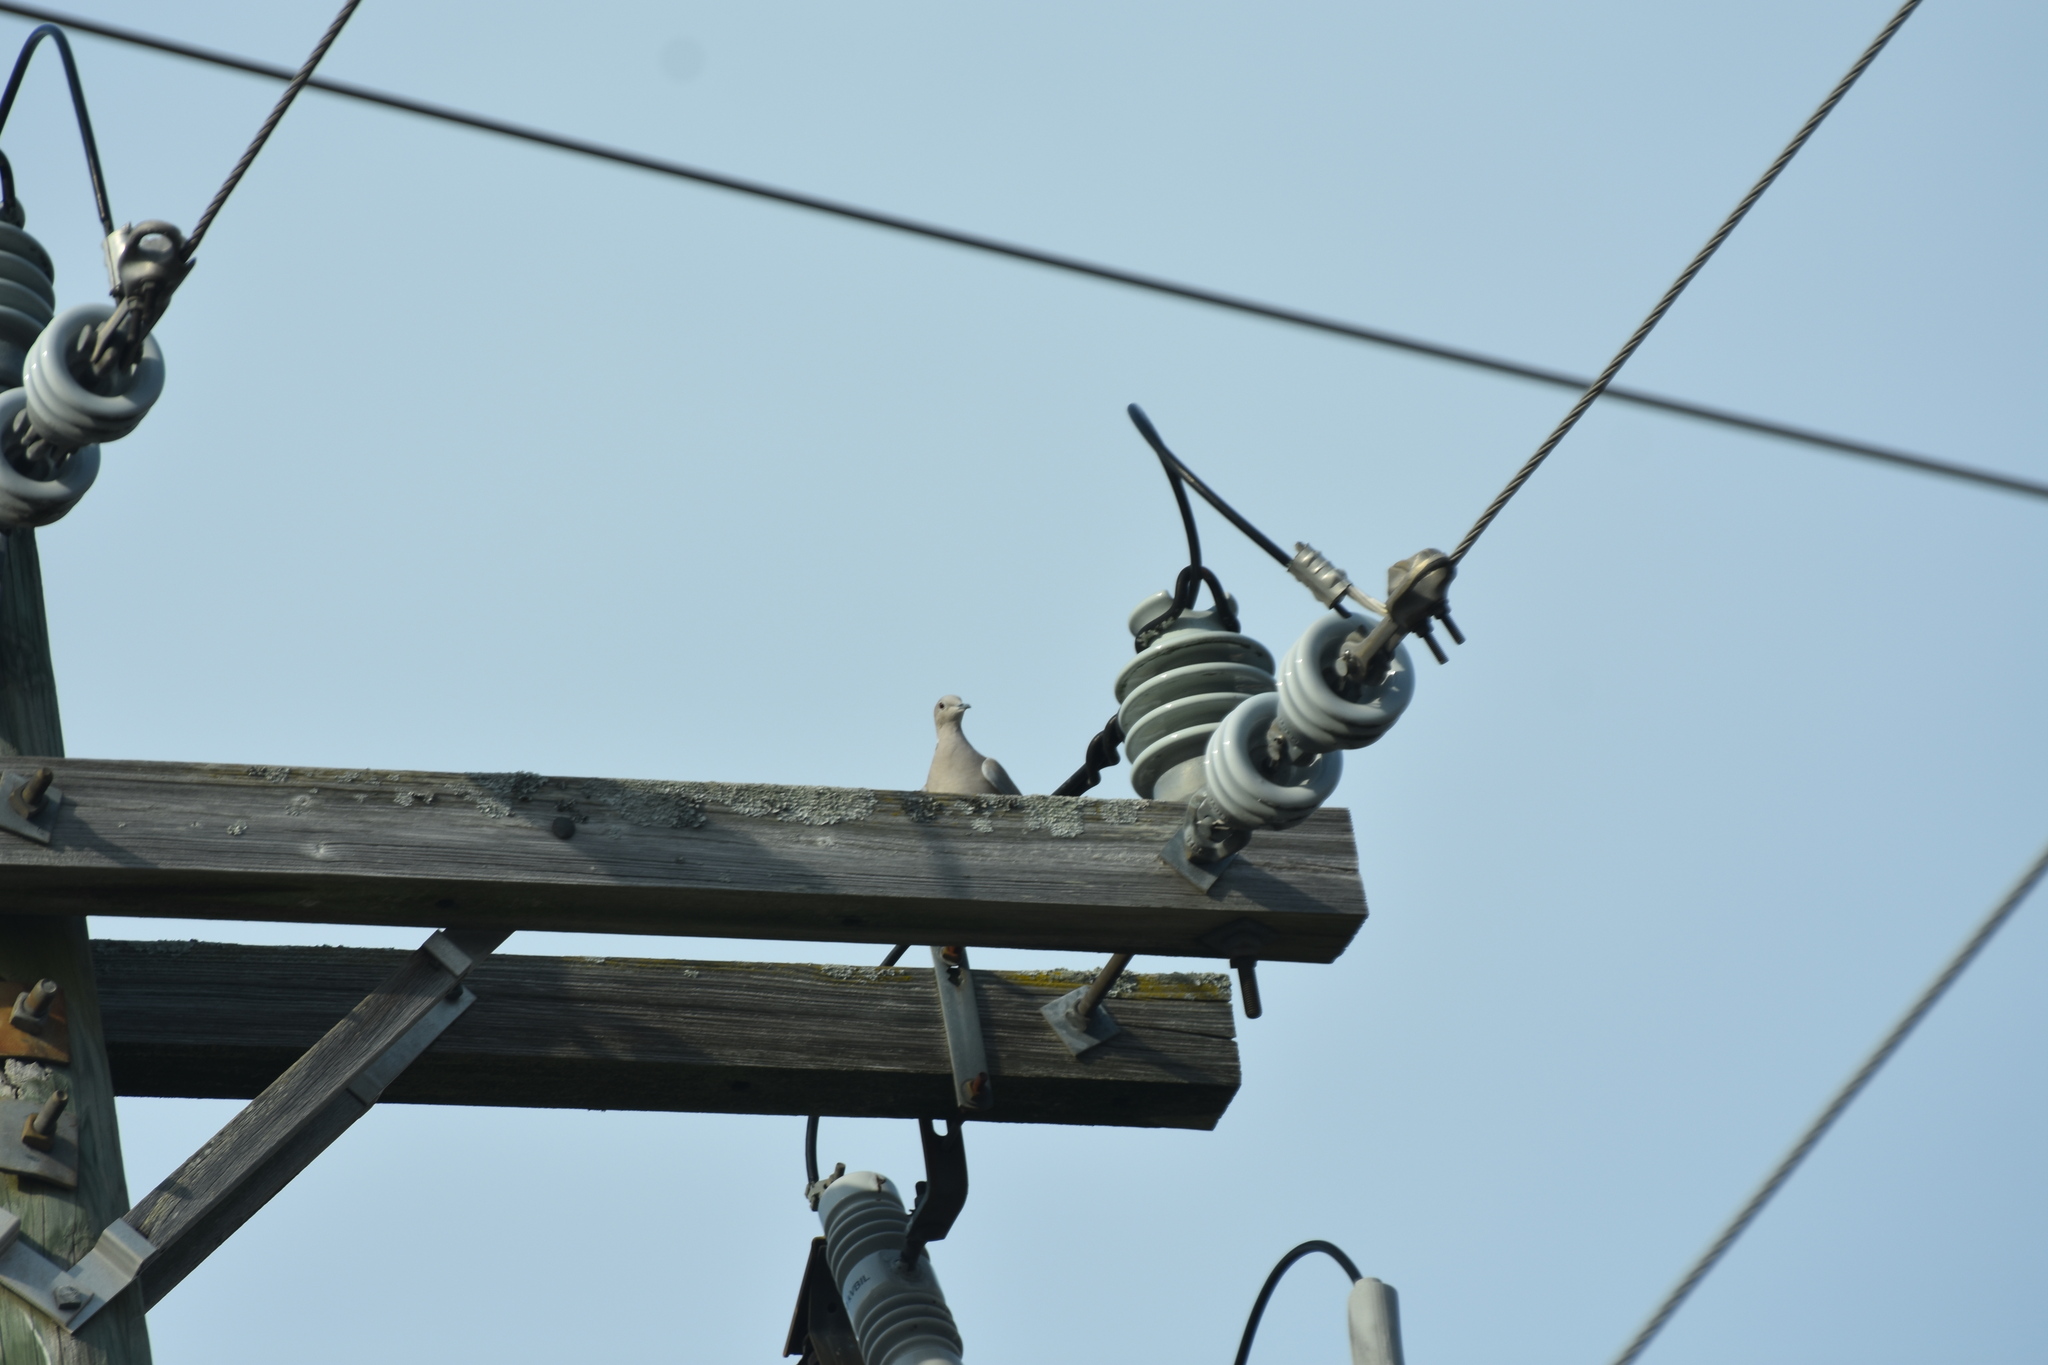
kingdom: Animalia
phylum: Chordata
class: Aves
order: Columbiformes
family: Columbidae
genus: Zenaida
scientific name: Zenaida macroura
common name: Mourning dove
